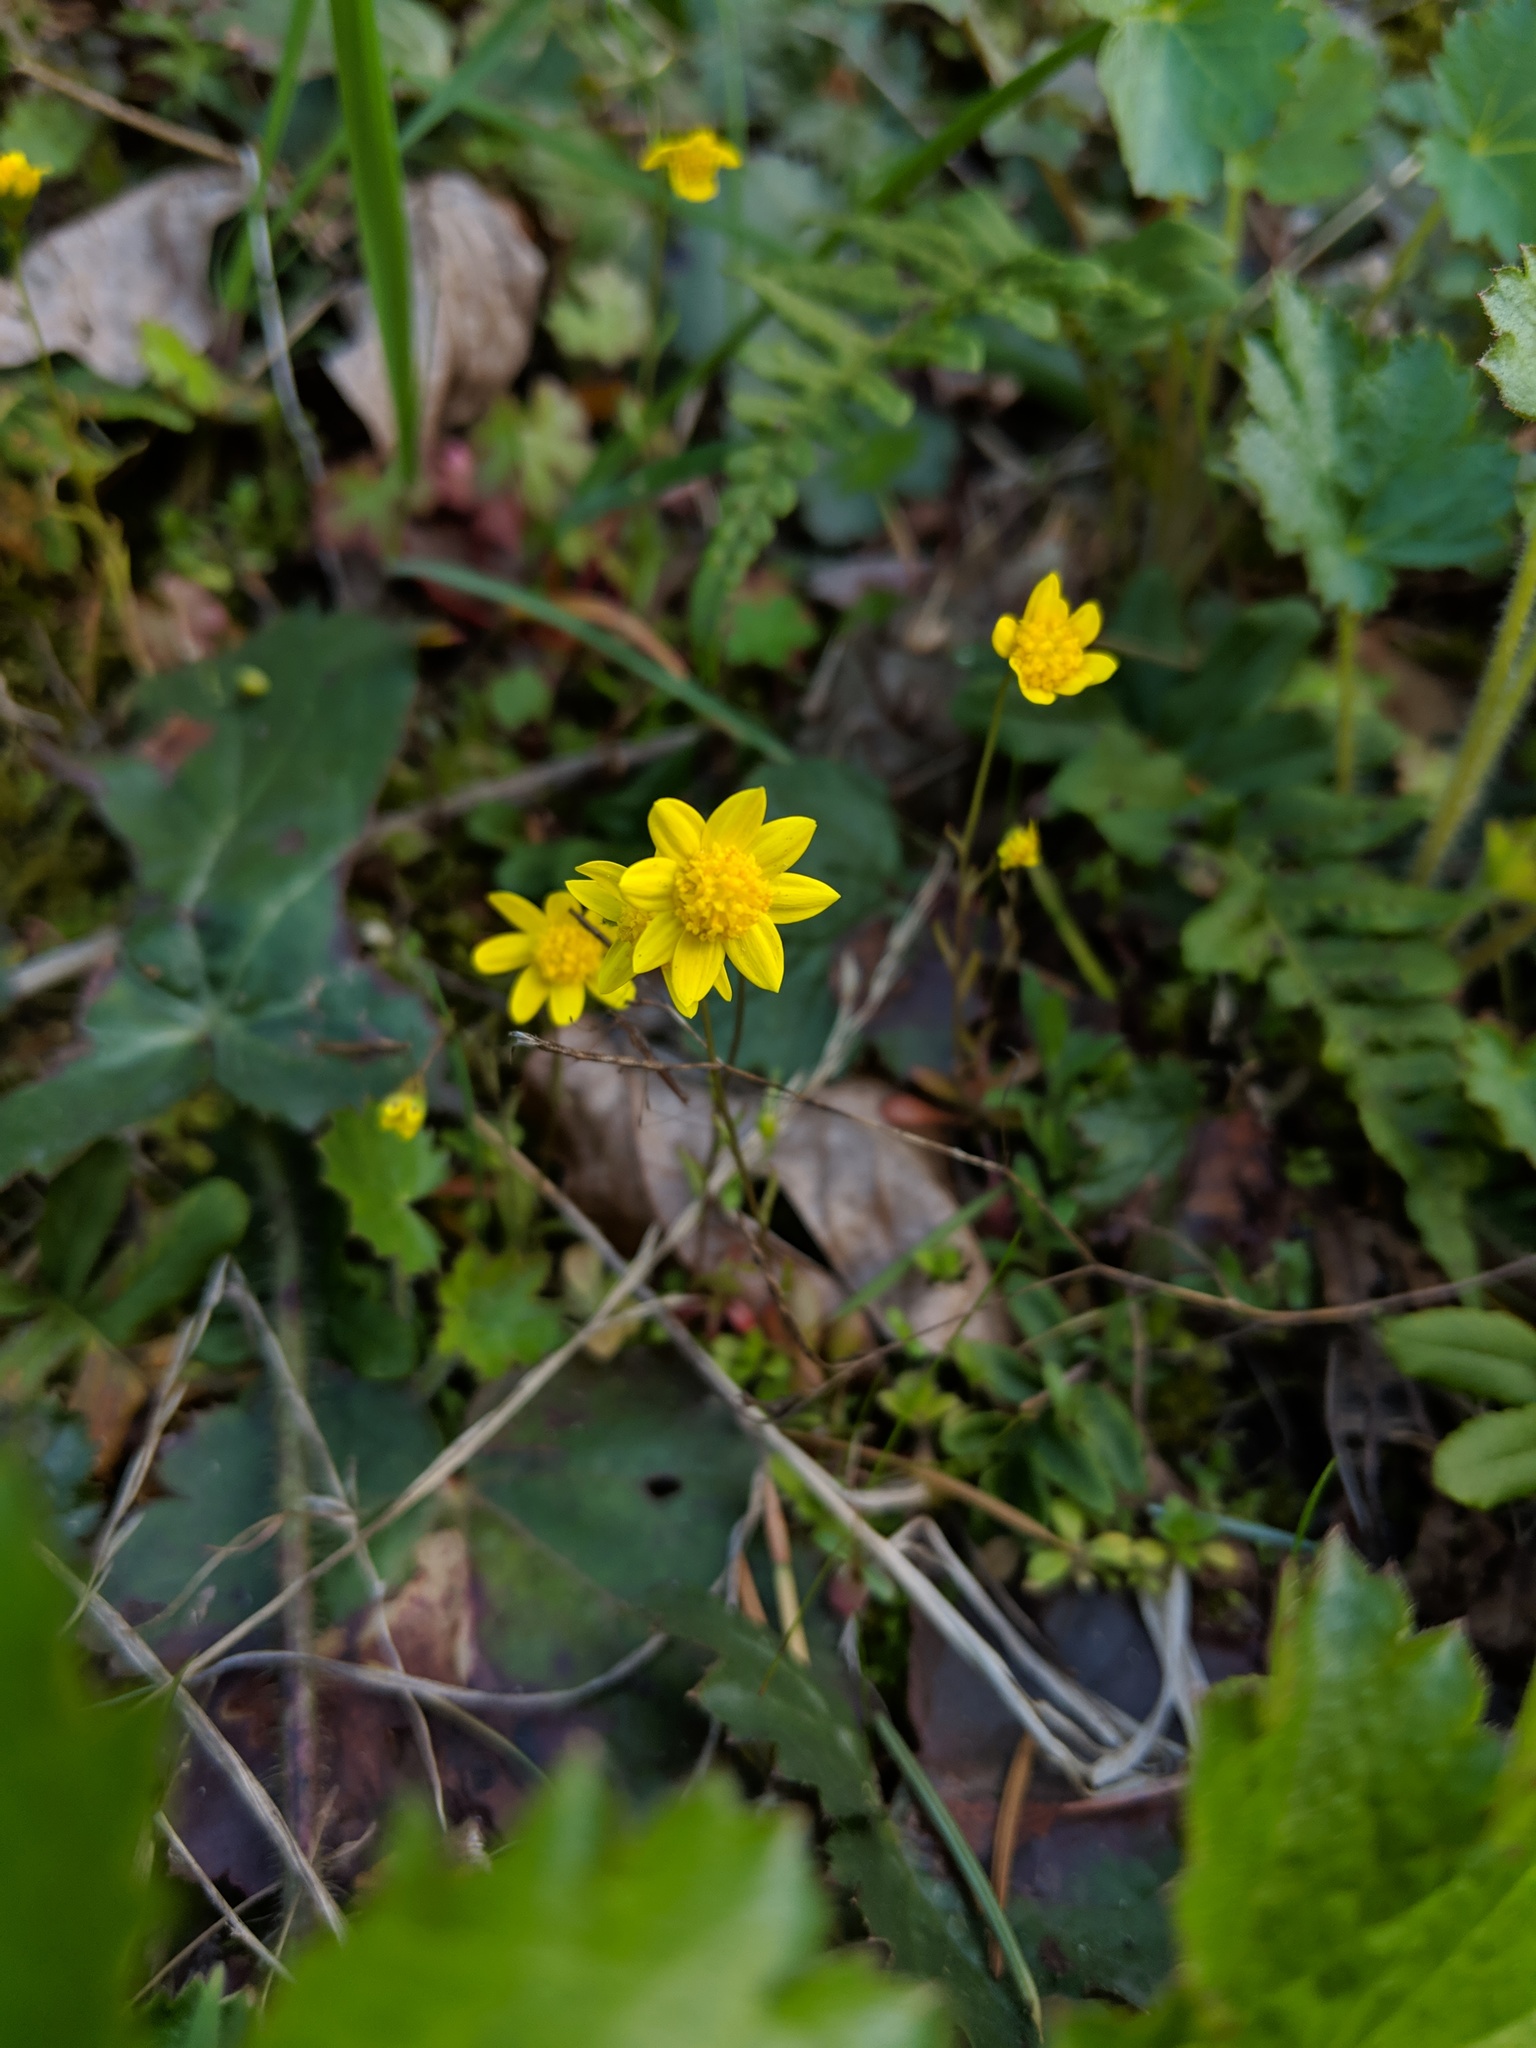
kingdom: Plantae
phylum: Tracheophyta
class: Magnoliopsida
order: Asterales
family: Asteraceae
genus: Crocidium
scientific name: Crocidium multicaule
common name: Common spring gold
